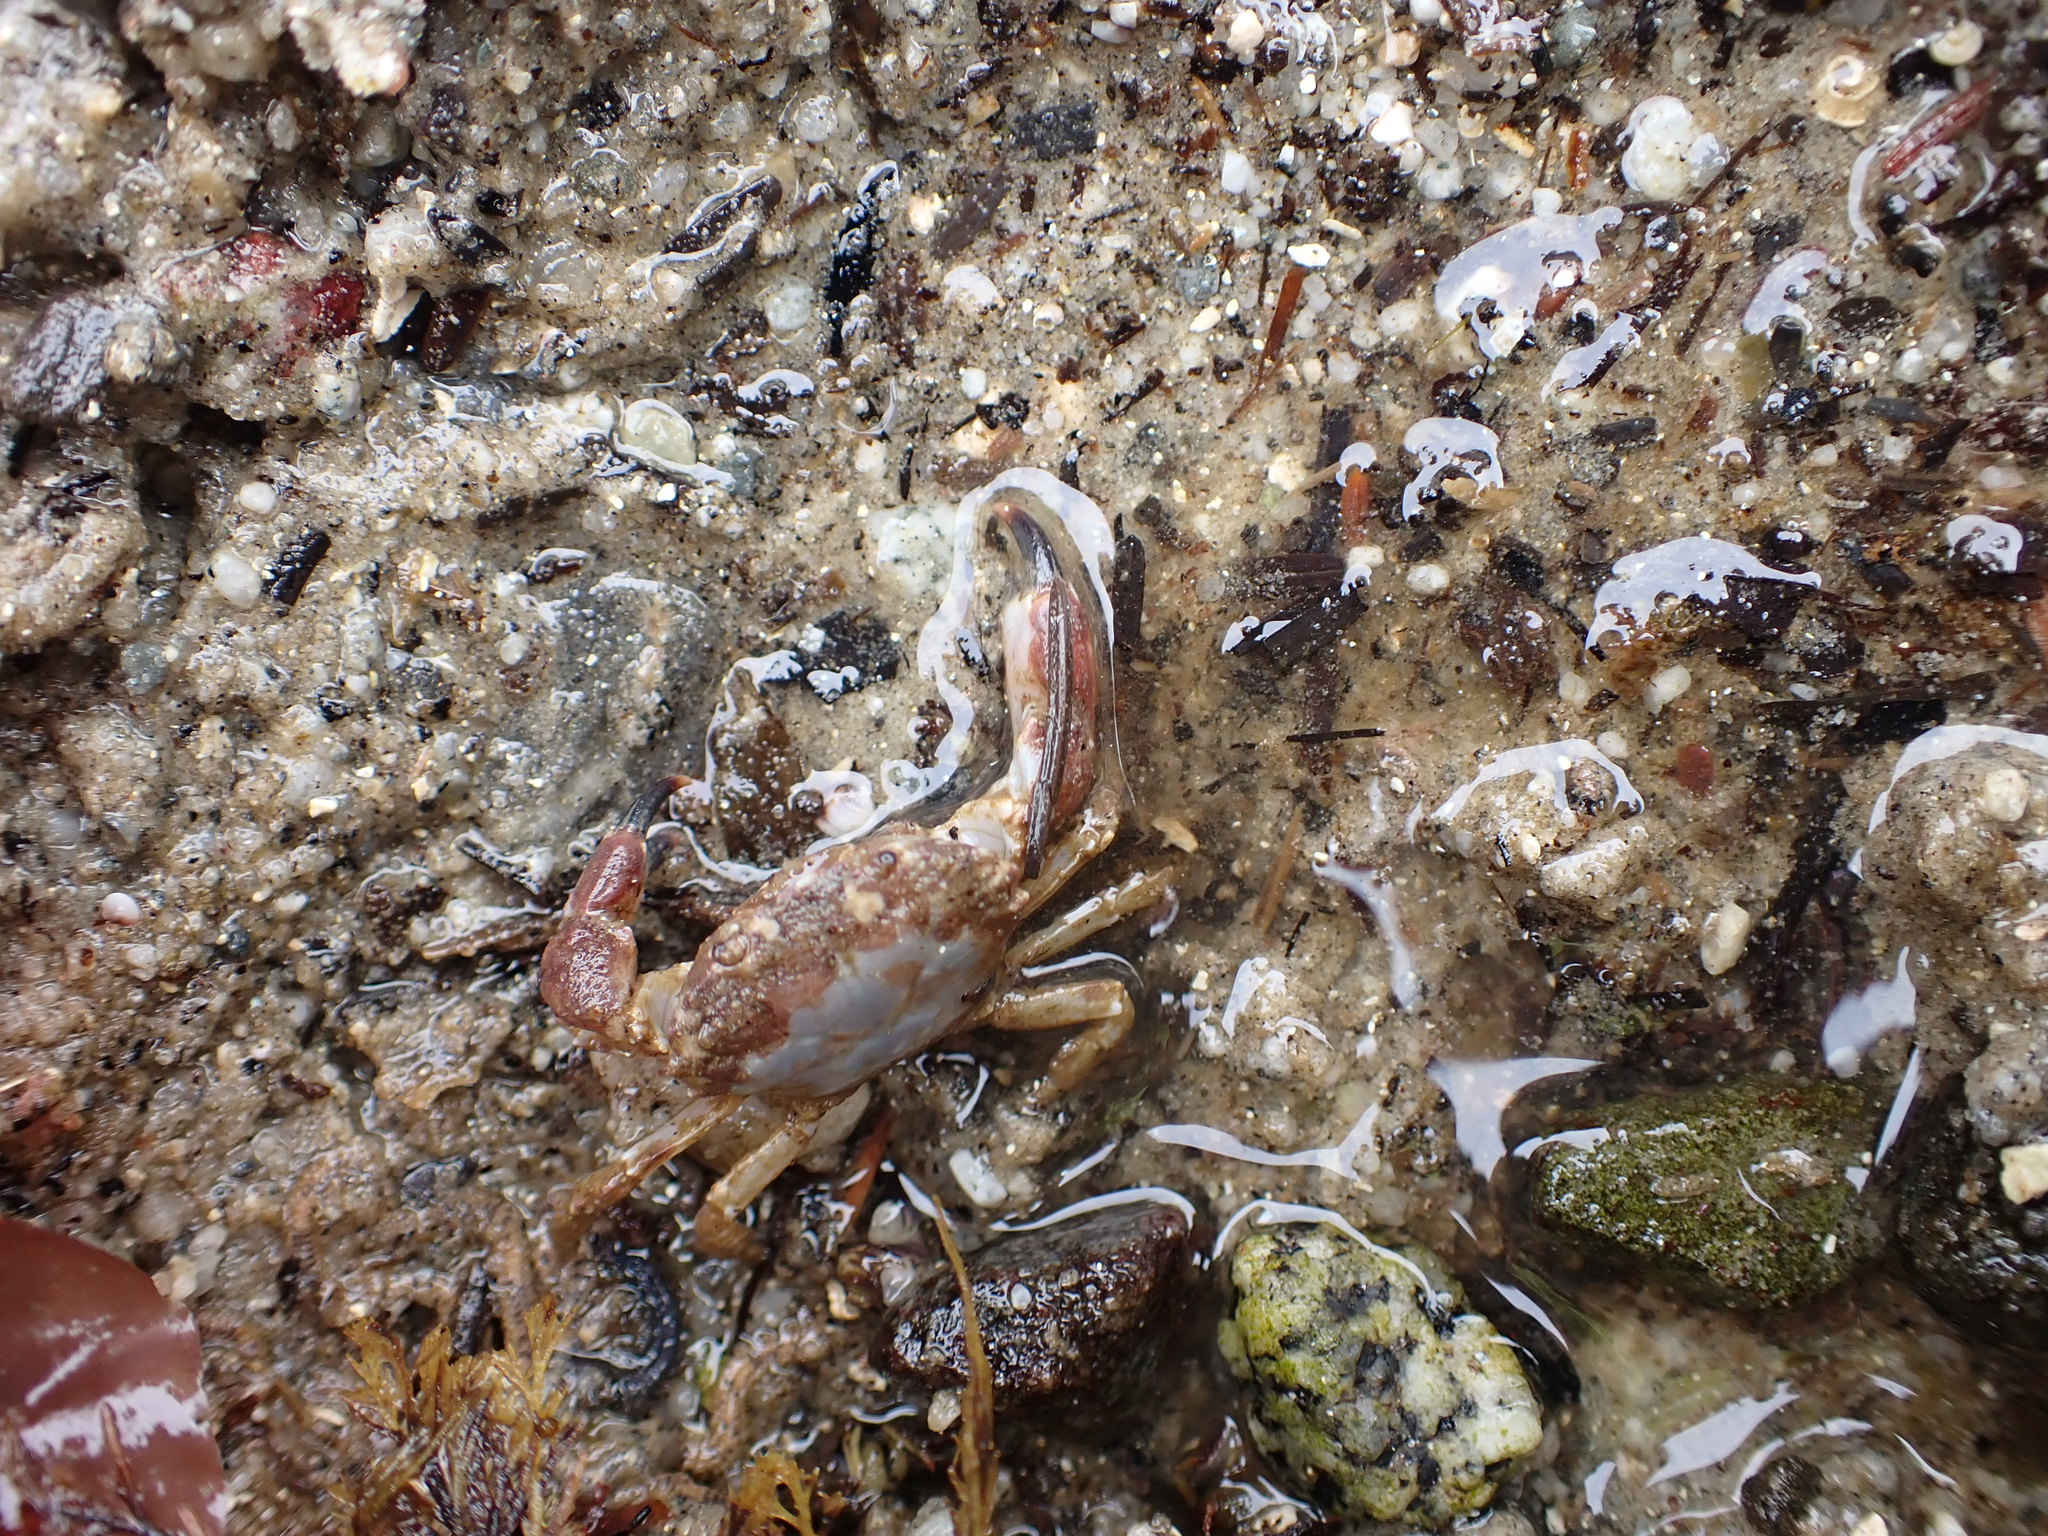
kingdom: Animalia
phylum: Arthropoda
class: Malacostraca
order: Decapoda
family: Panopeidae
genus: Lophopanopeus
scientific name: Lophopanopeus bellus
